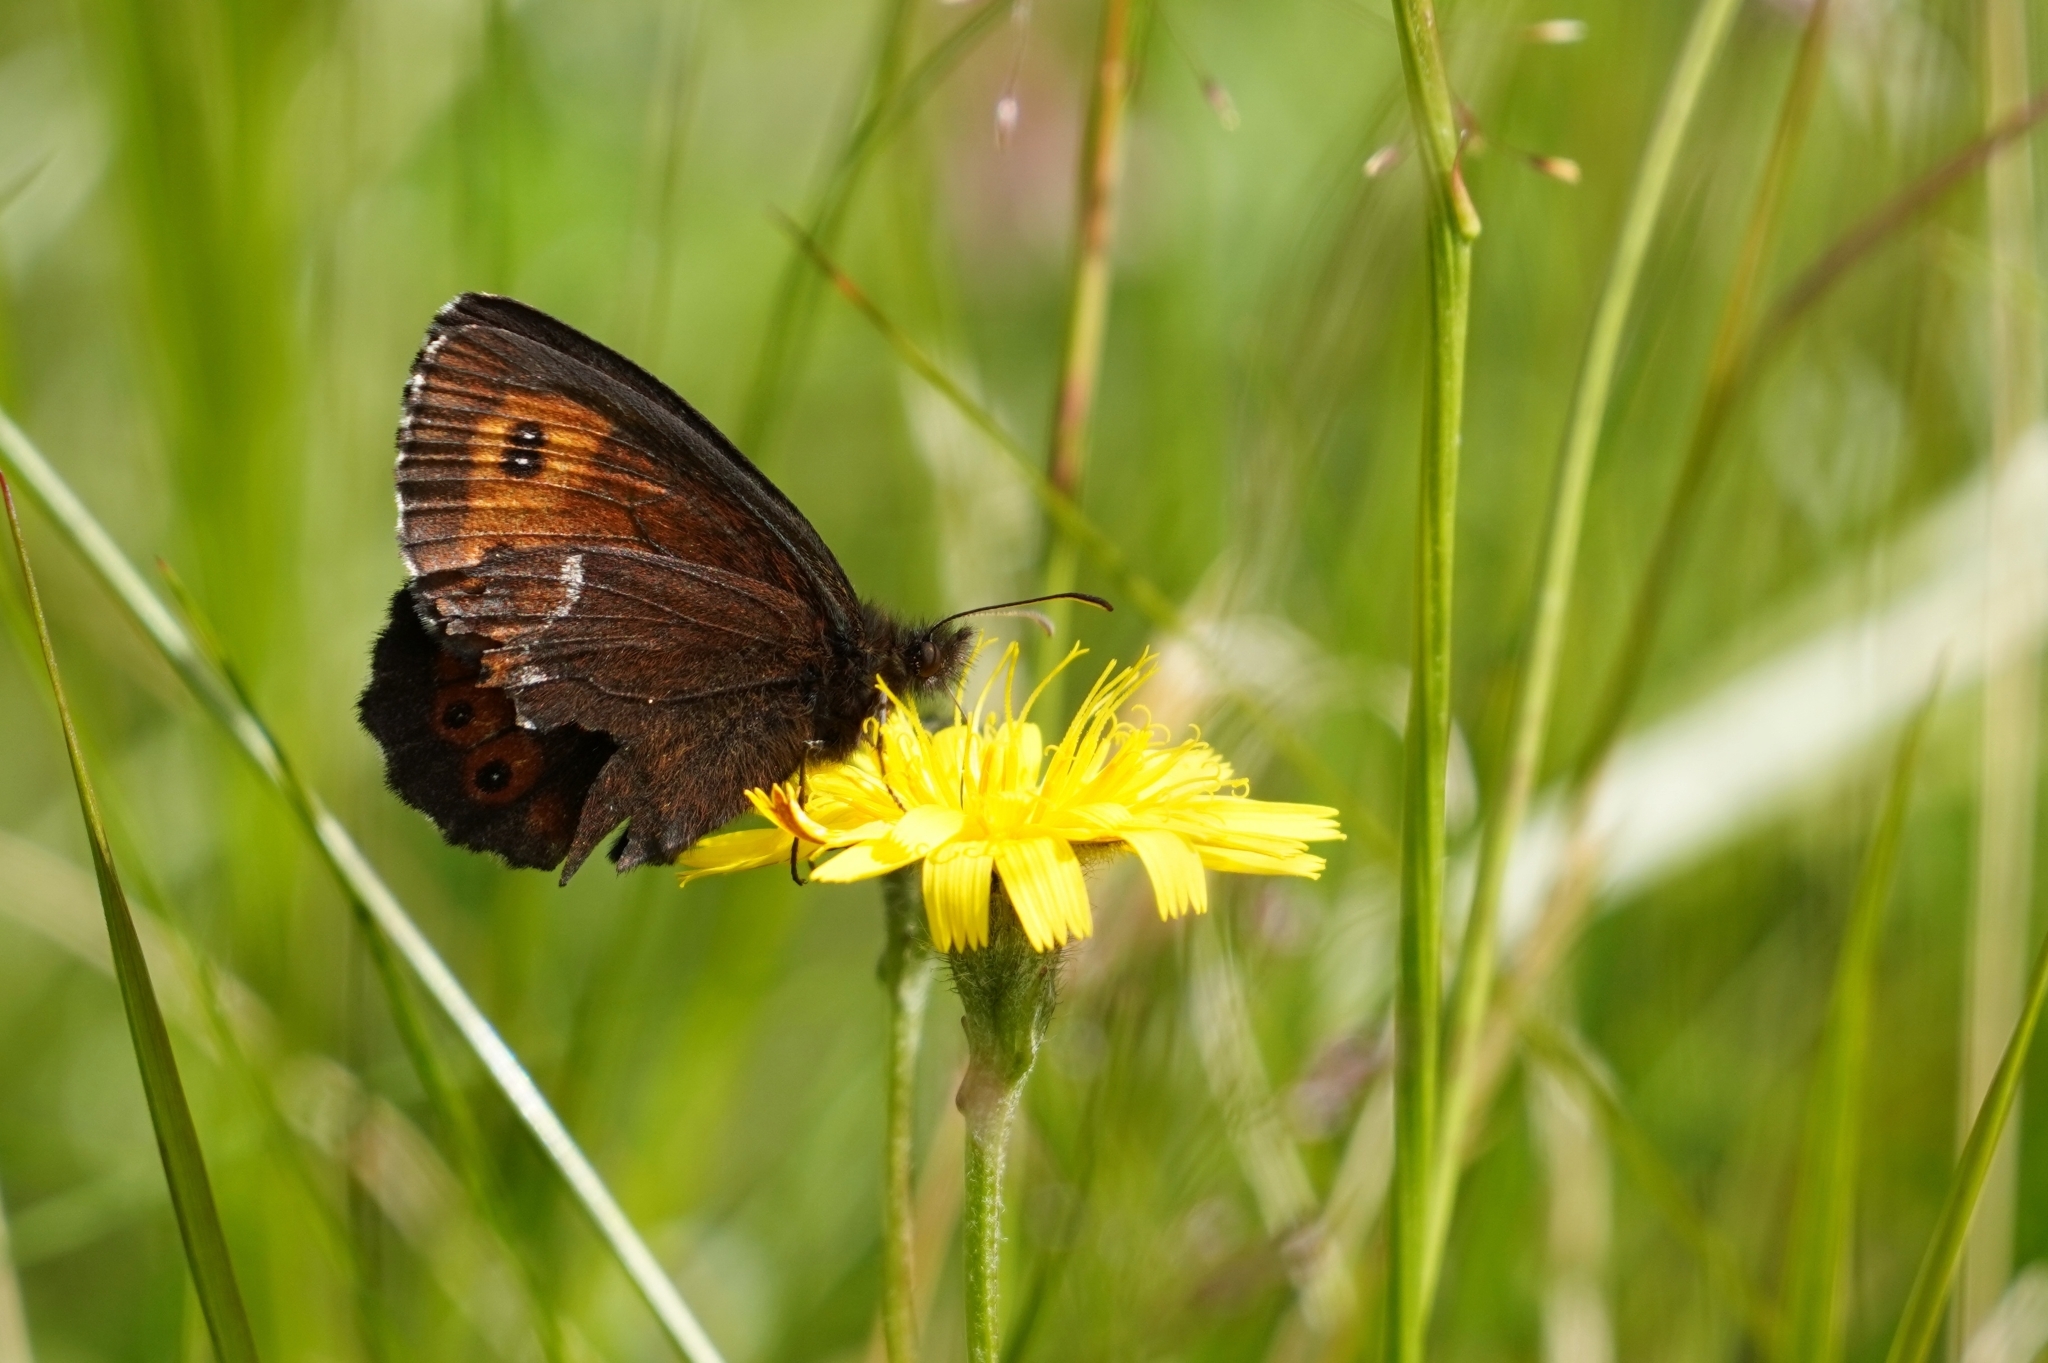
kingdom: Animalia
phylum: Arthropoda
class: Insecta
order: Lepidoptera
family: Nymphalidae
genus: Erebia
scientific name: Erebia ligea
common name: Arran brown
